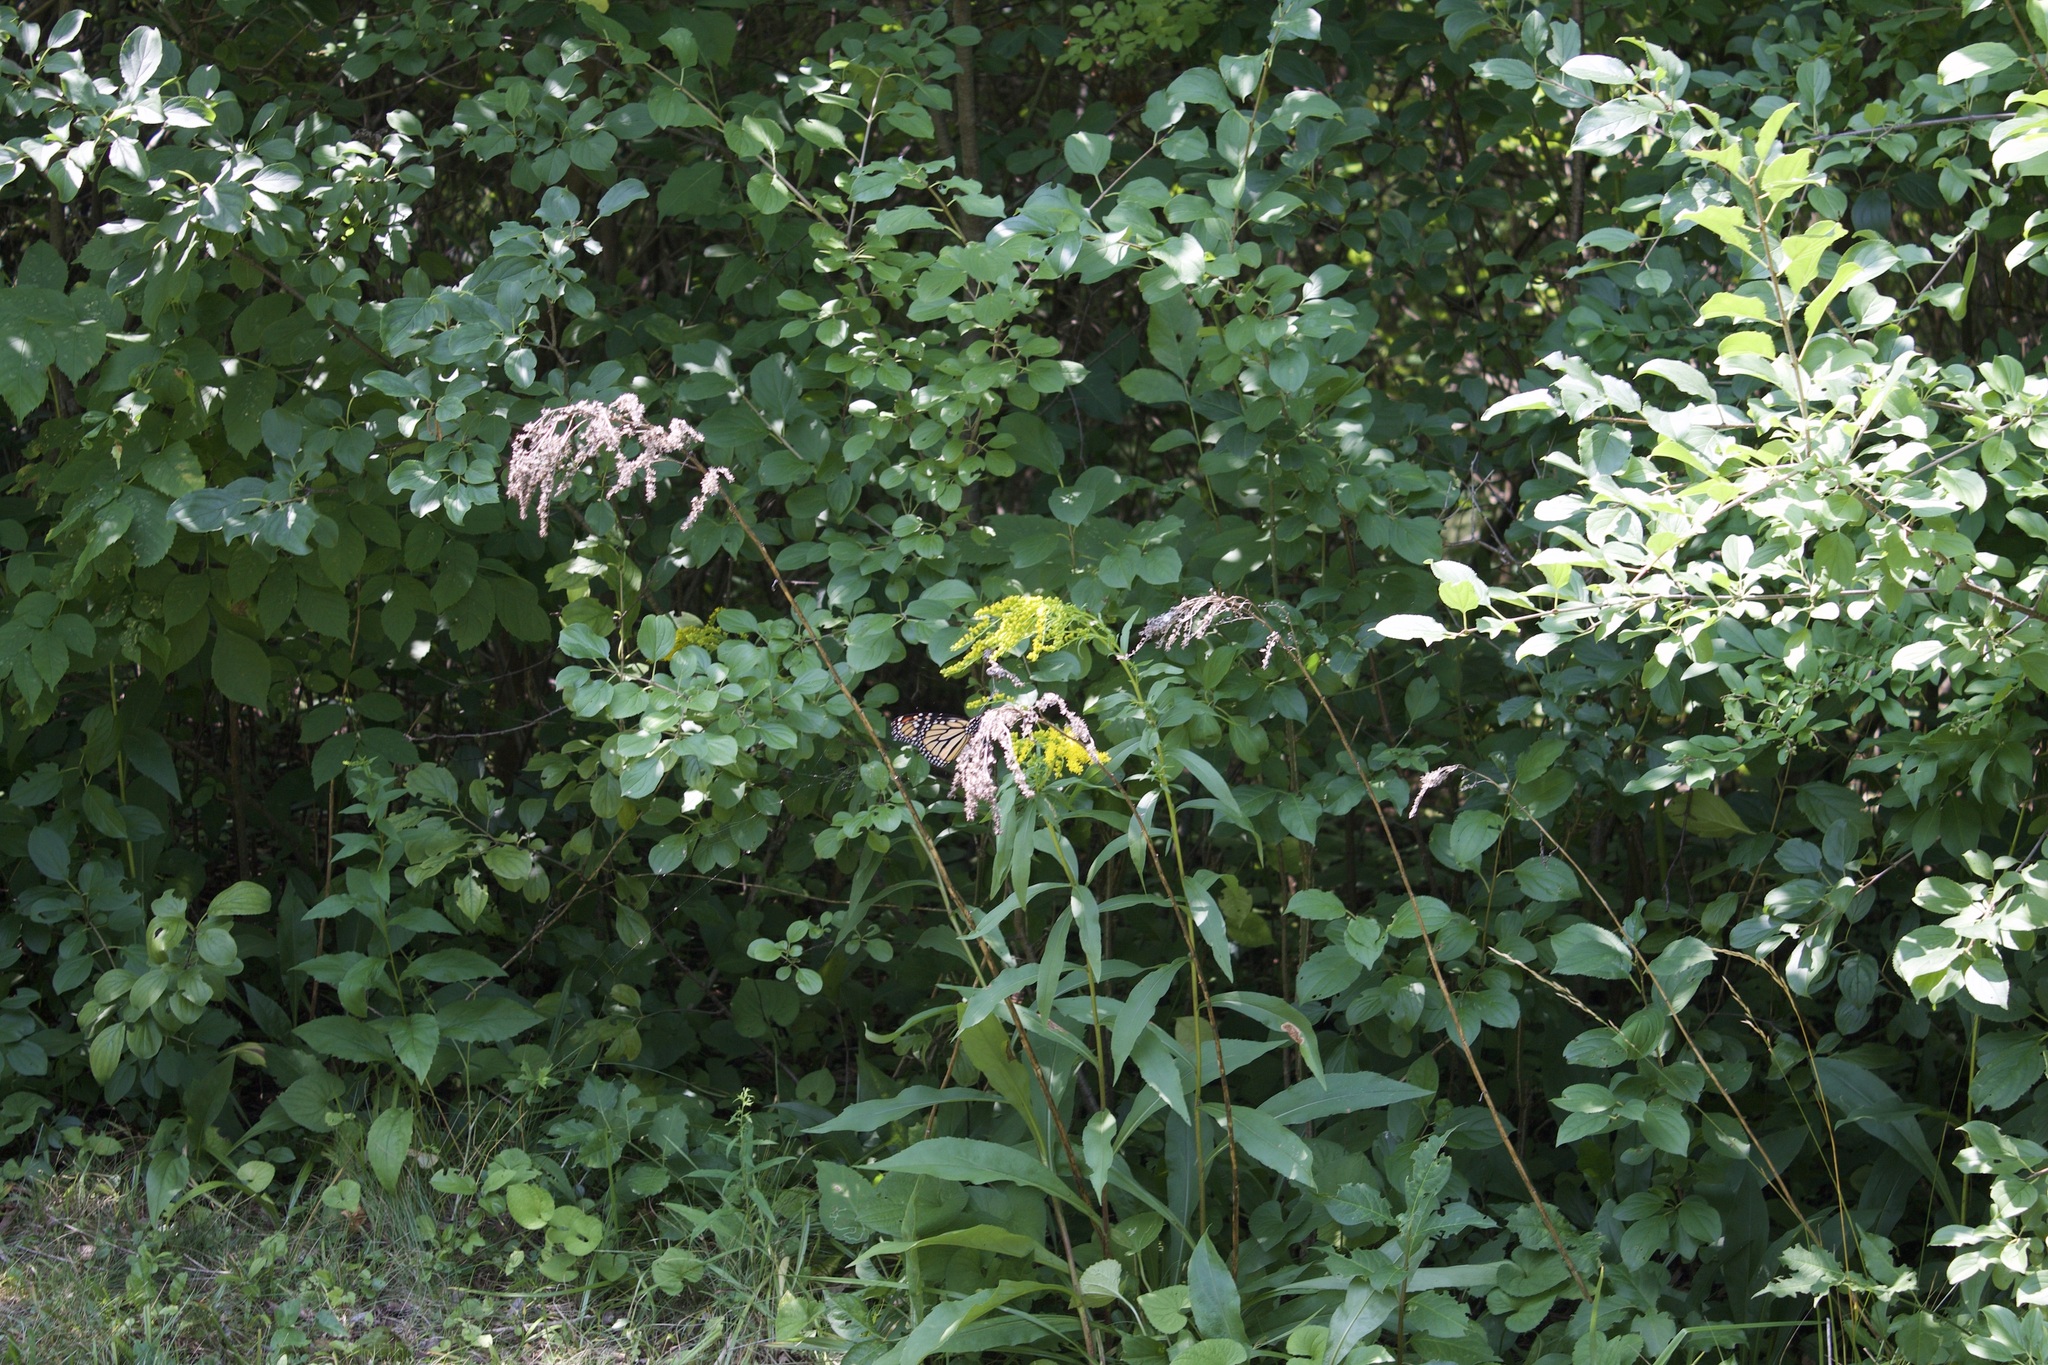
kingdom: Animalia
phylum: Arthropoda
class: Insecta
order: Lepidoptera
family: Nymphalidae
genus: Danaus
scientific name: Danaus plexippus
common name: Monarch
